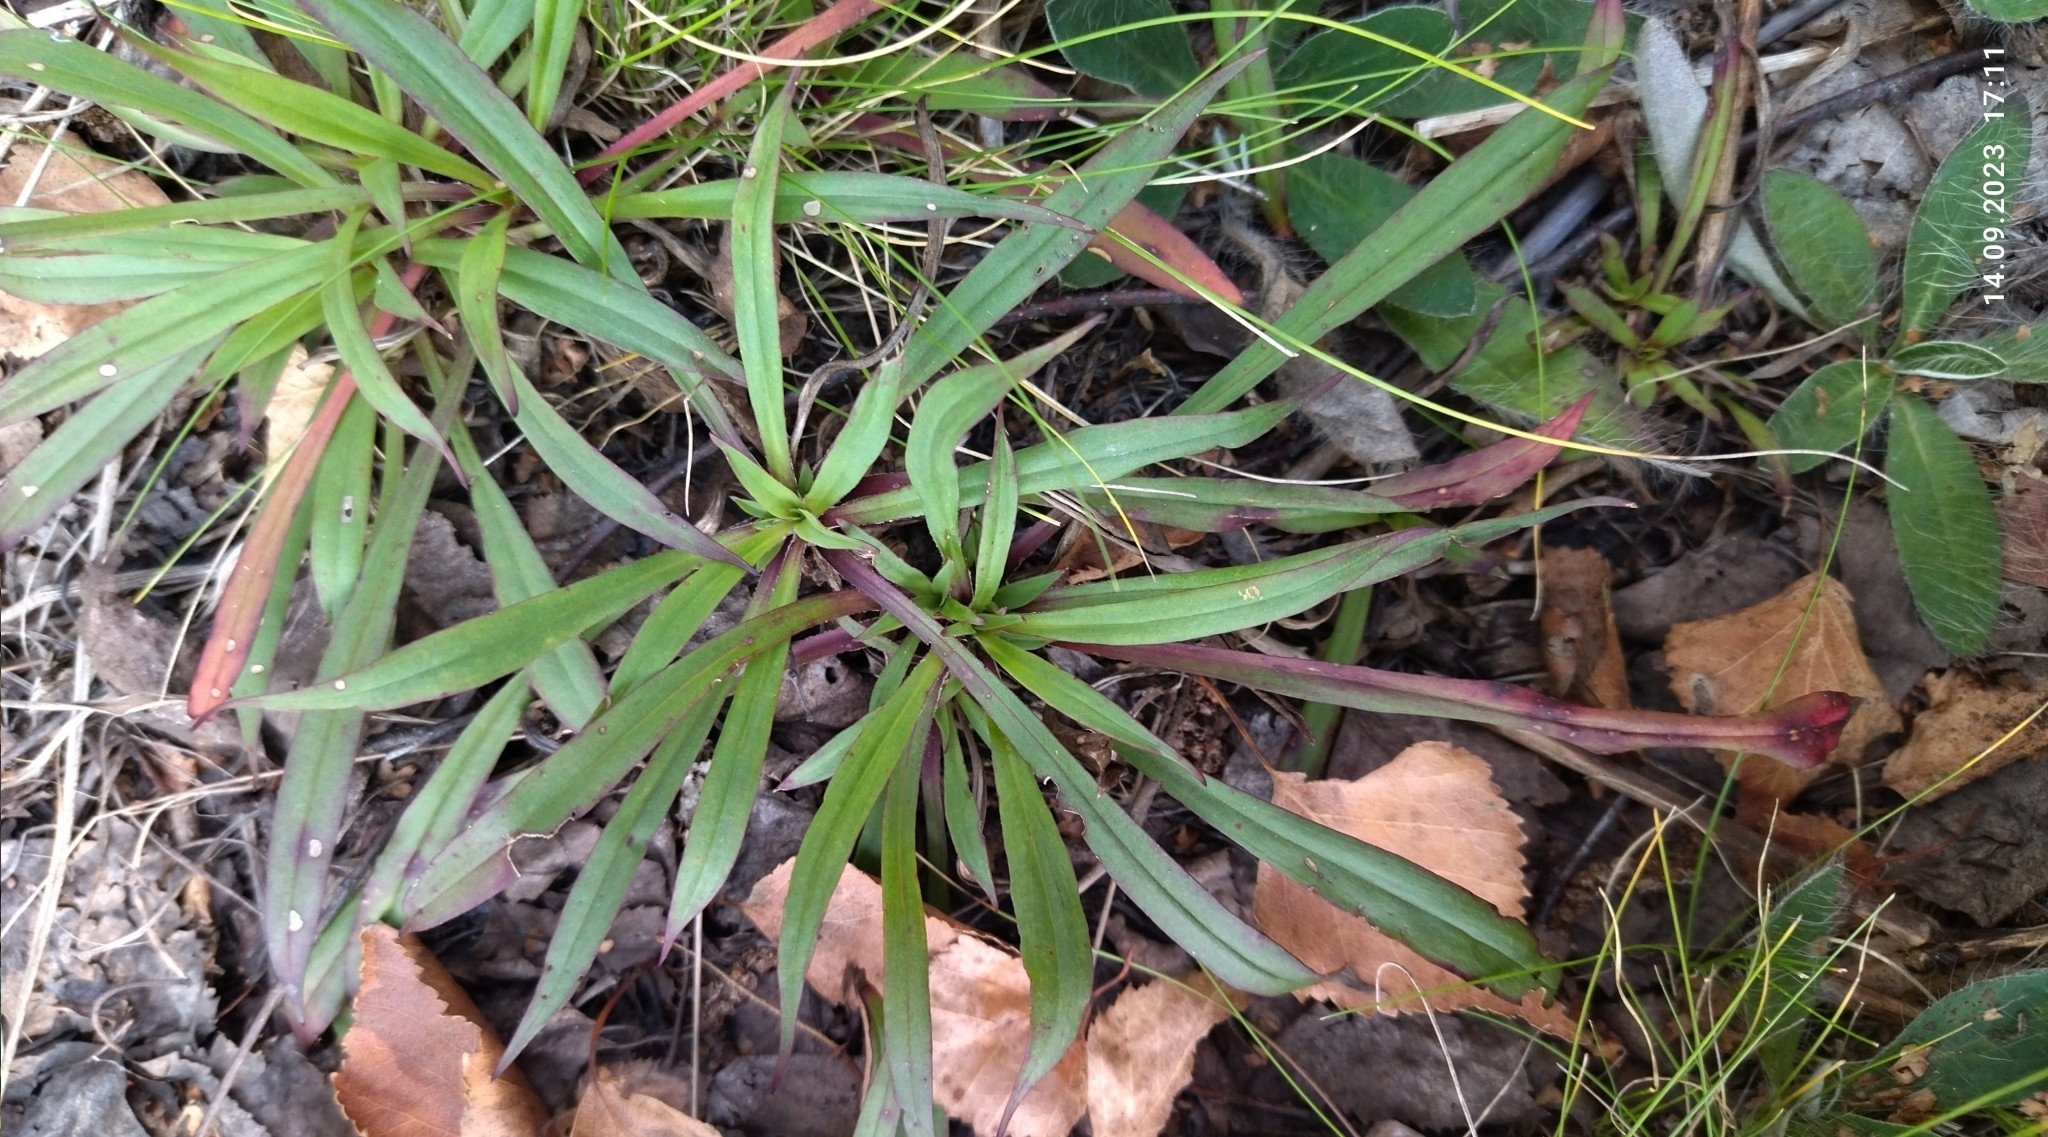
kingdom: Plantae
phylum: Tracheophyta
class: Magnoliopsida
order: Caryophyllales
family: Caryophyllaceae
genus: Viscaria
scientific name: Viscaria vulgaris
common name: Clammy campion
